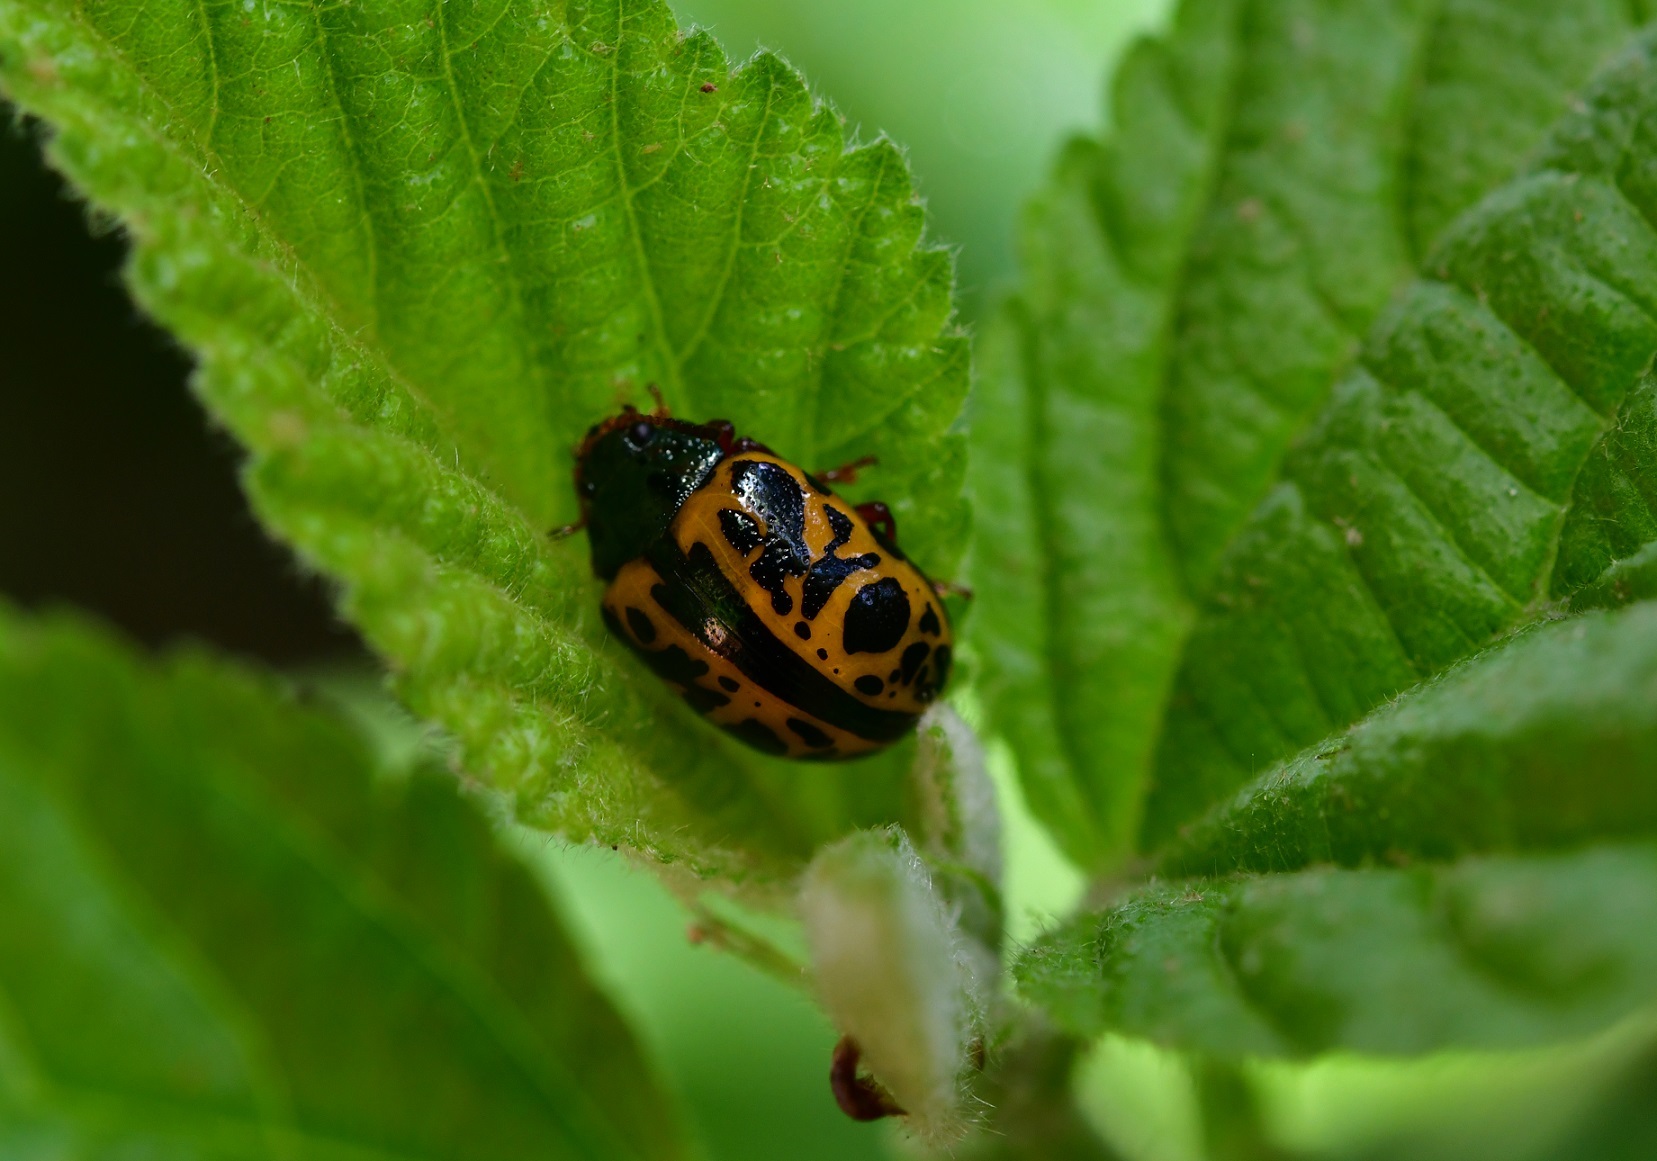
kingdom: Animalia
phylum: Arthropoda
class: Insecta
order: Coleoptera
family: Chrysomelidae
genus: Calligrapha
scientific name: Calligrapha fulvipes
